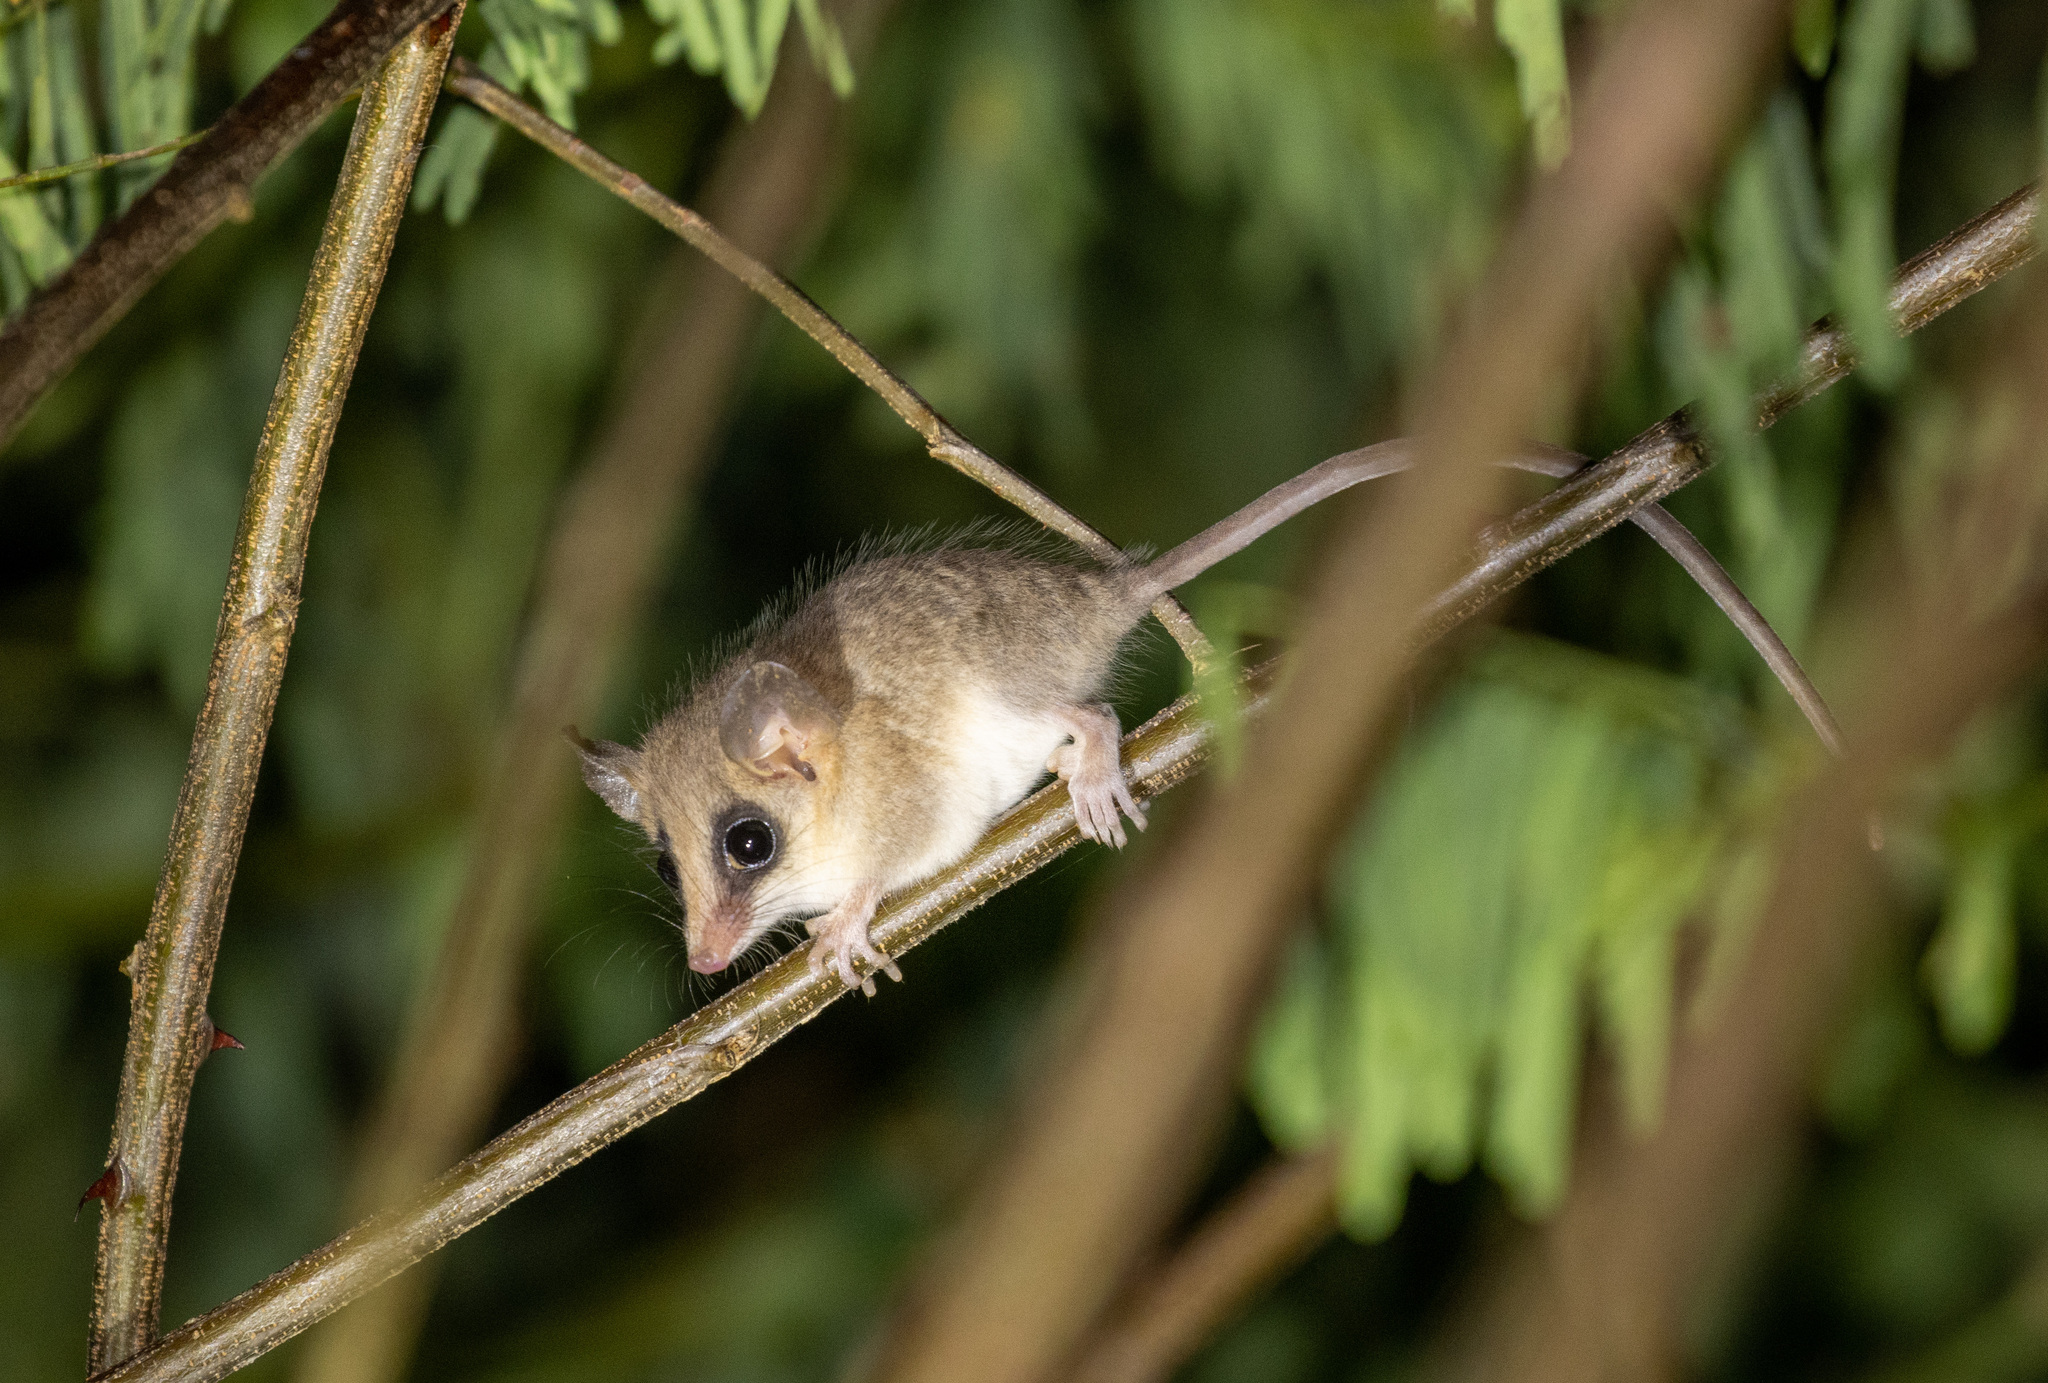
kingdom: Animalia
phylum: Chordata
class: Mammalia
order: Didelphimorphia
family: Didelphidae
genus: Gracilinanus
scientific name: Gracilinanus agilis
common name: Agile gracile opossum
